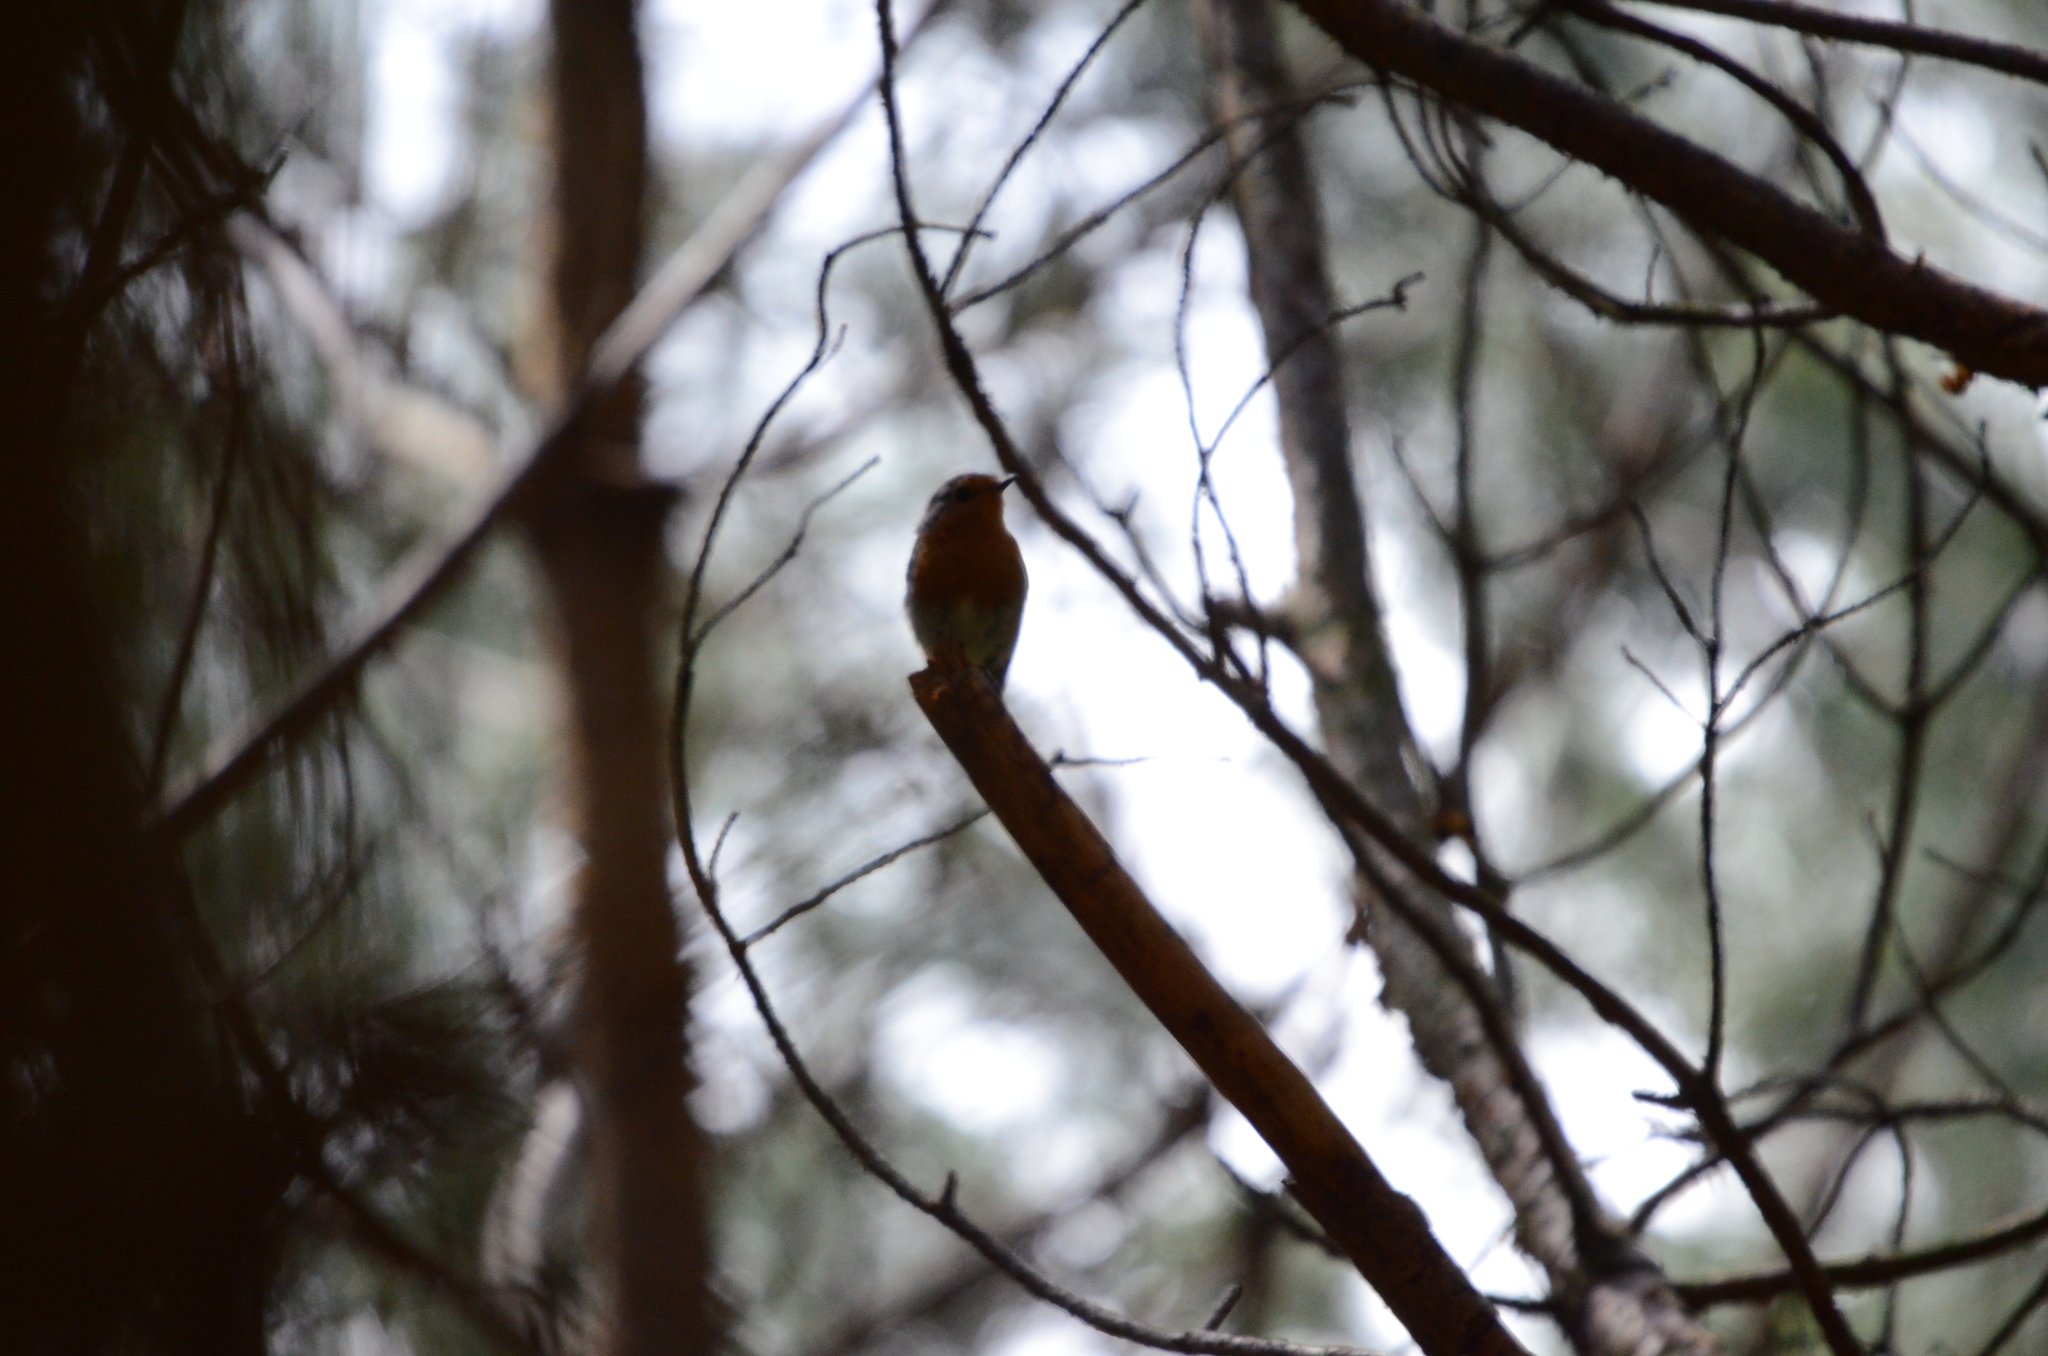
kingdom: Animalia
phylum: Chordata
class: Aves
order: Passeriformes
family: Muscicapidae
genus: Erithacus
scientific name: Erithacus rubecula
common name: European robin
